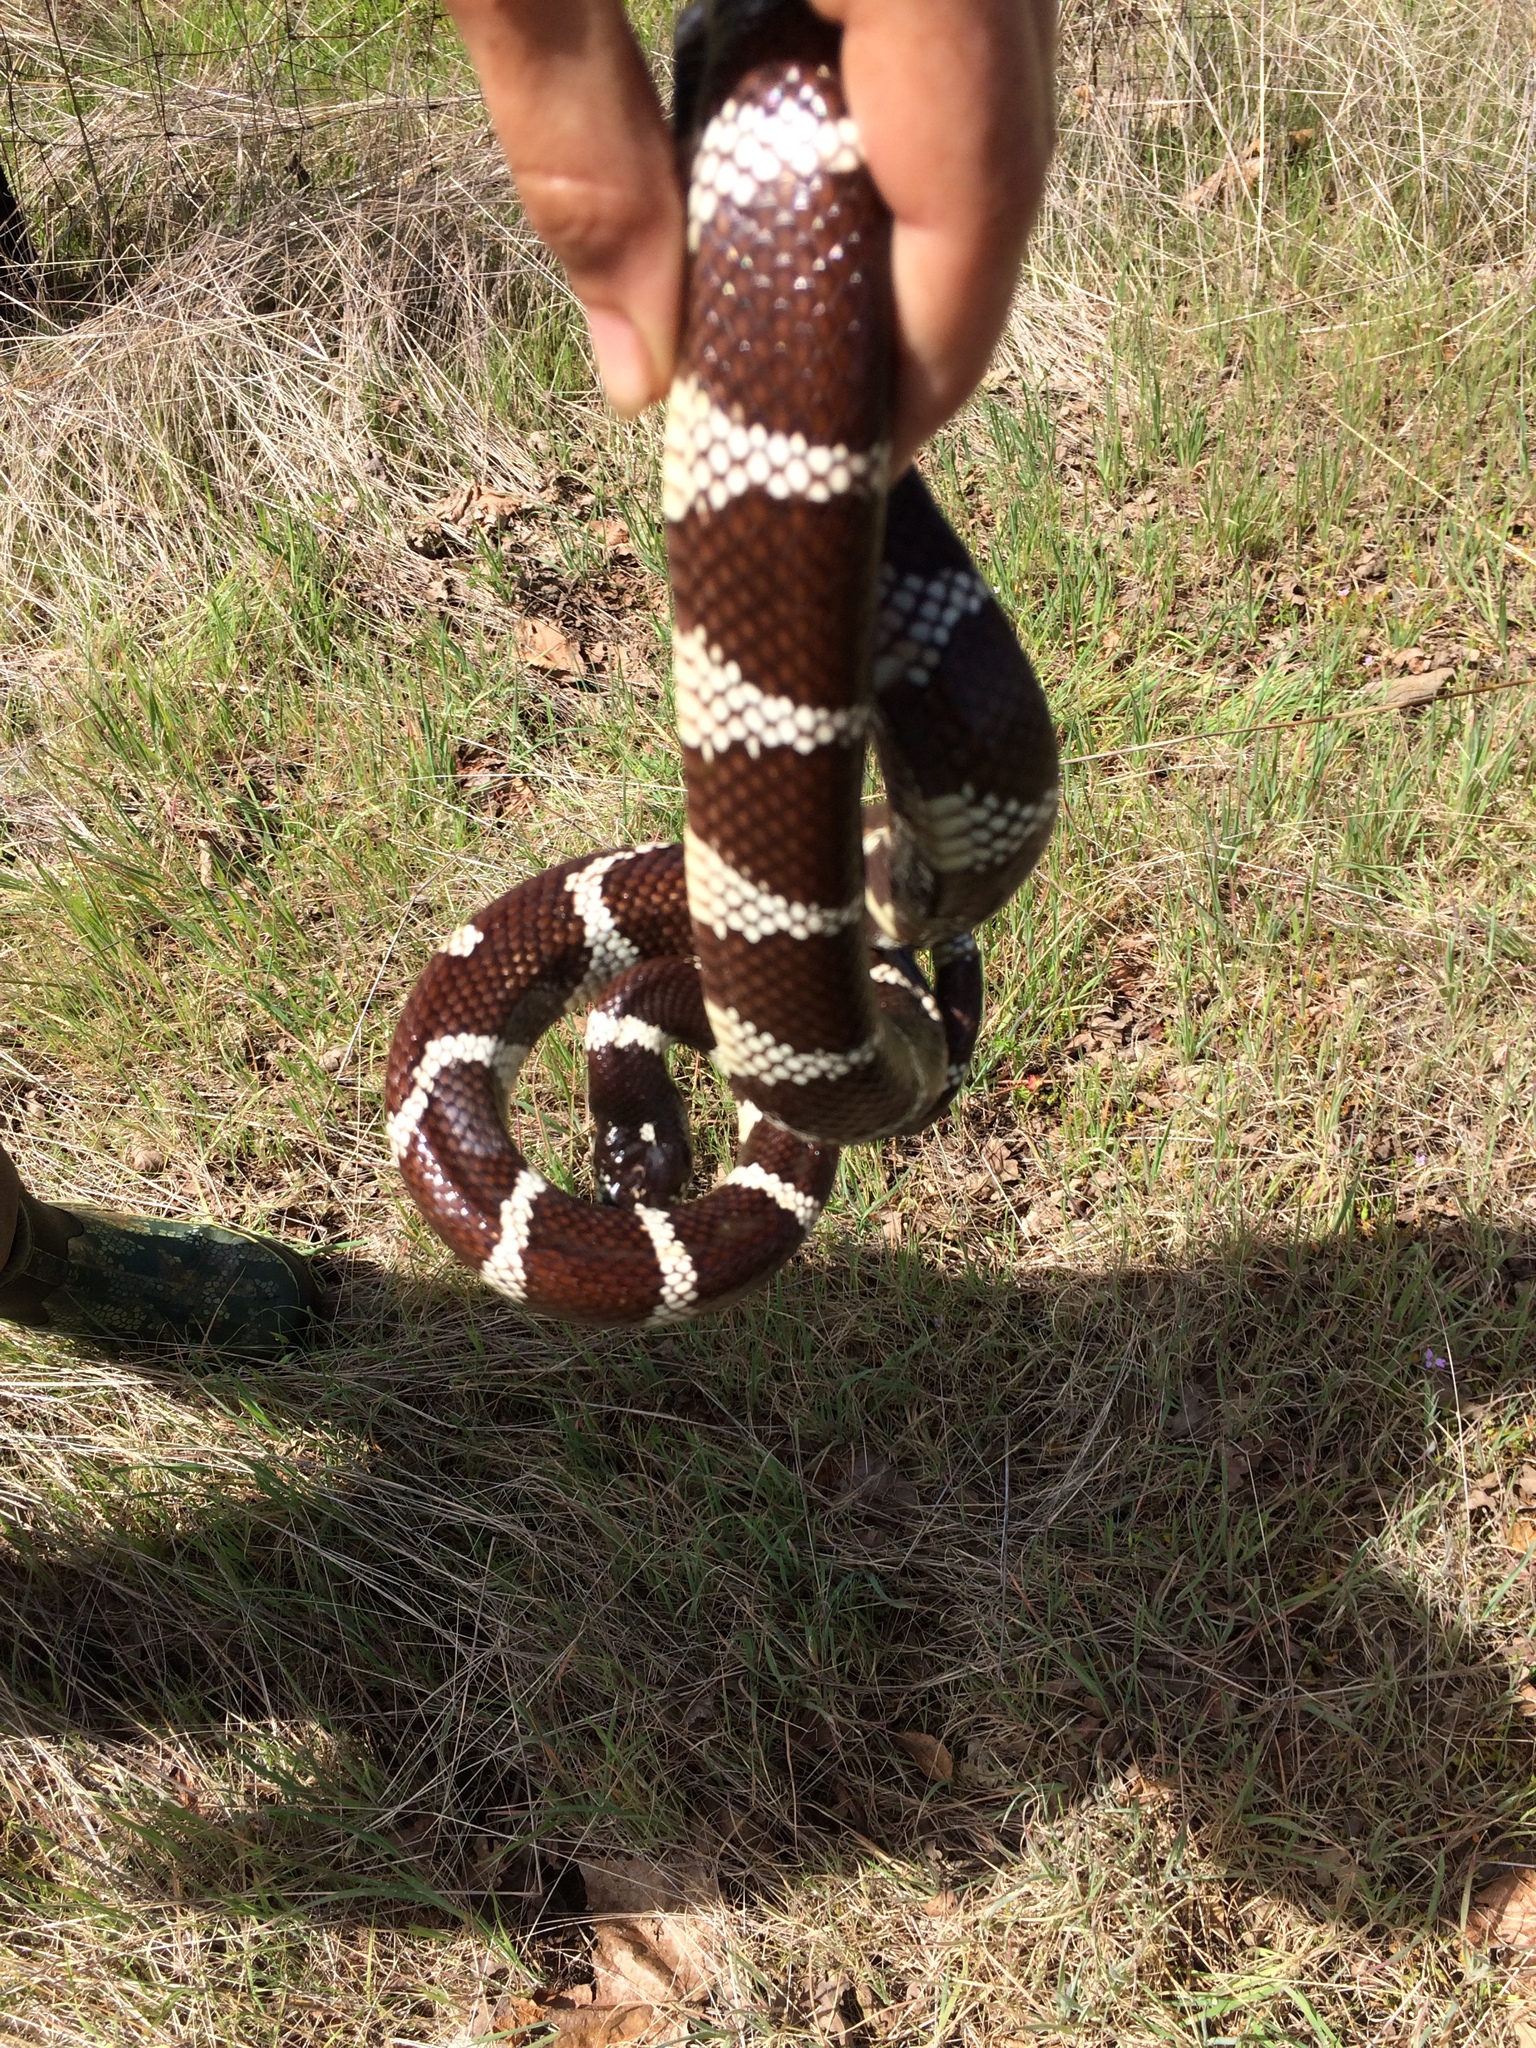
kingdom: Animalia
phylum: Chordata
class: Squamata
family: Colubridae
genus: Lampropeltis
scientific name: Lampropeltis californiae
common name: California kingsnake
